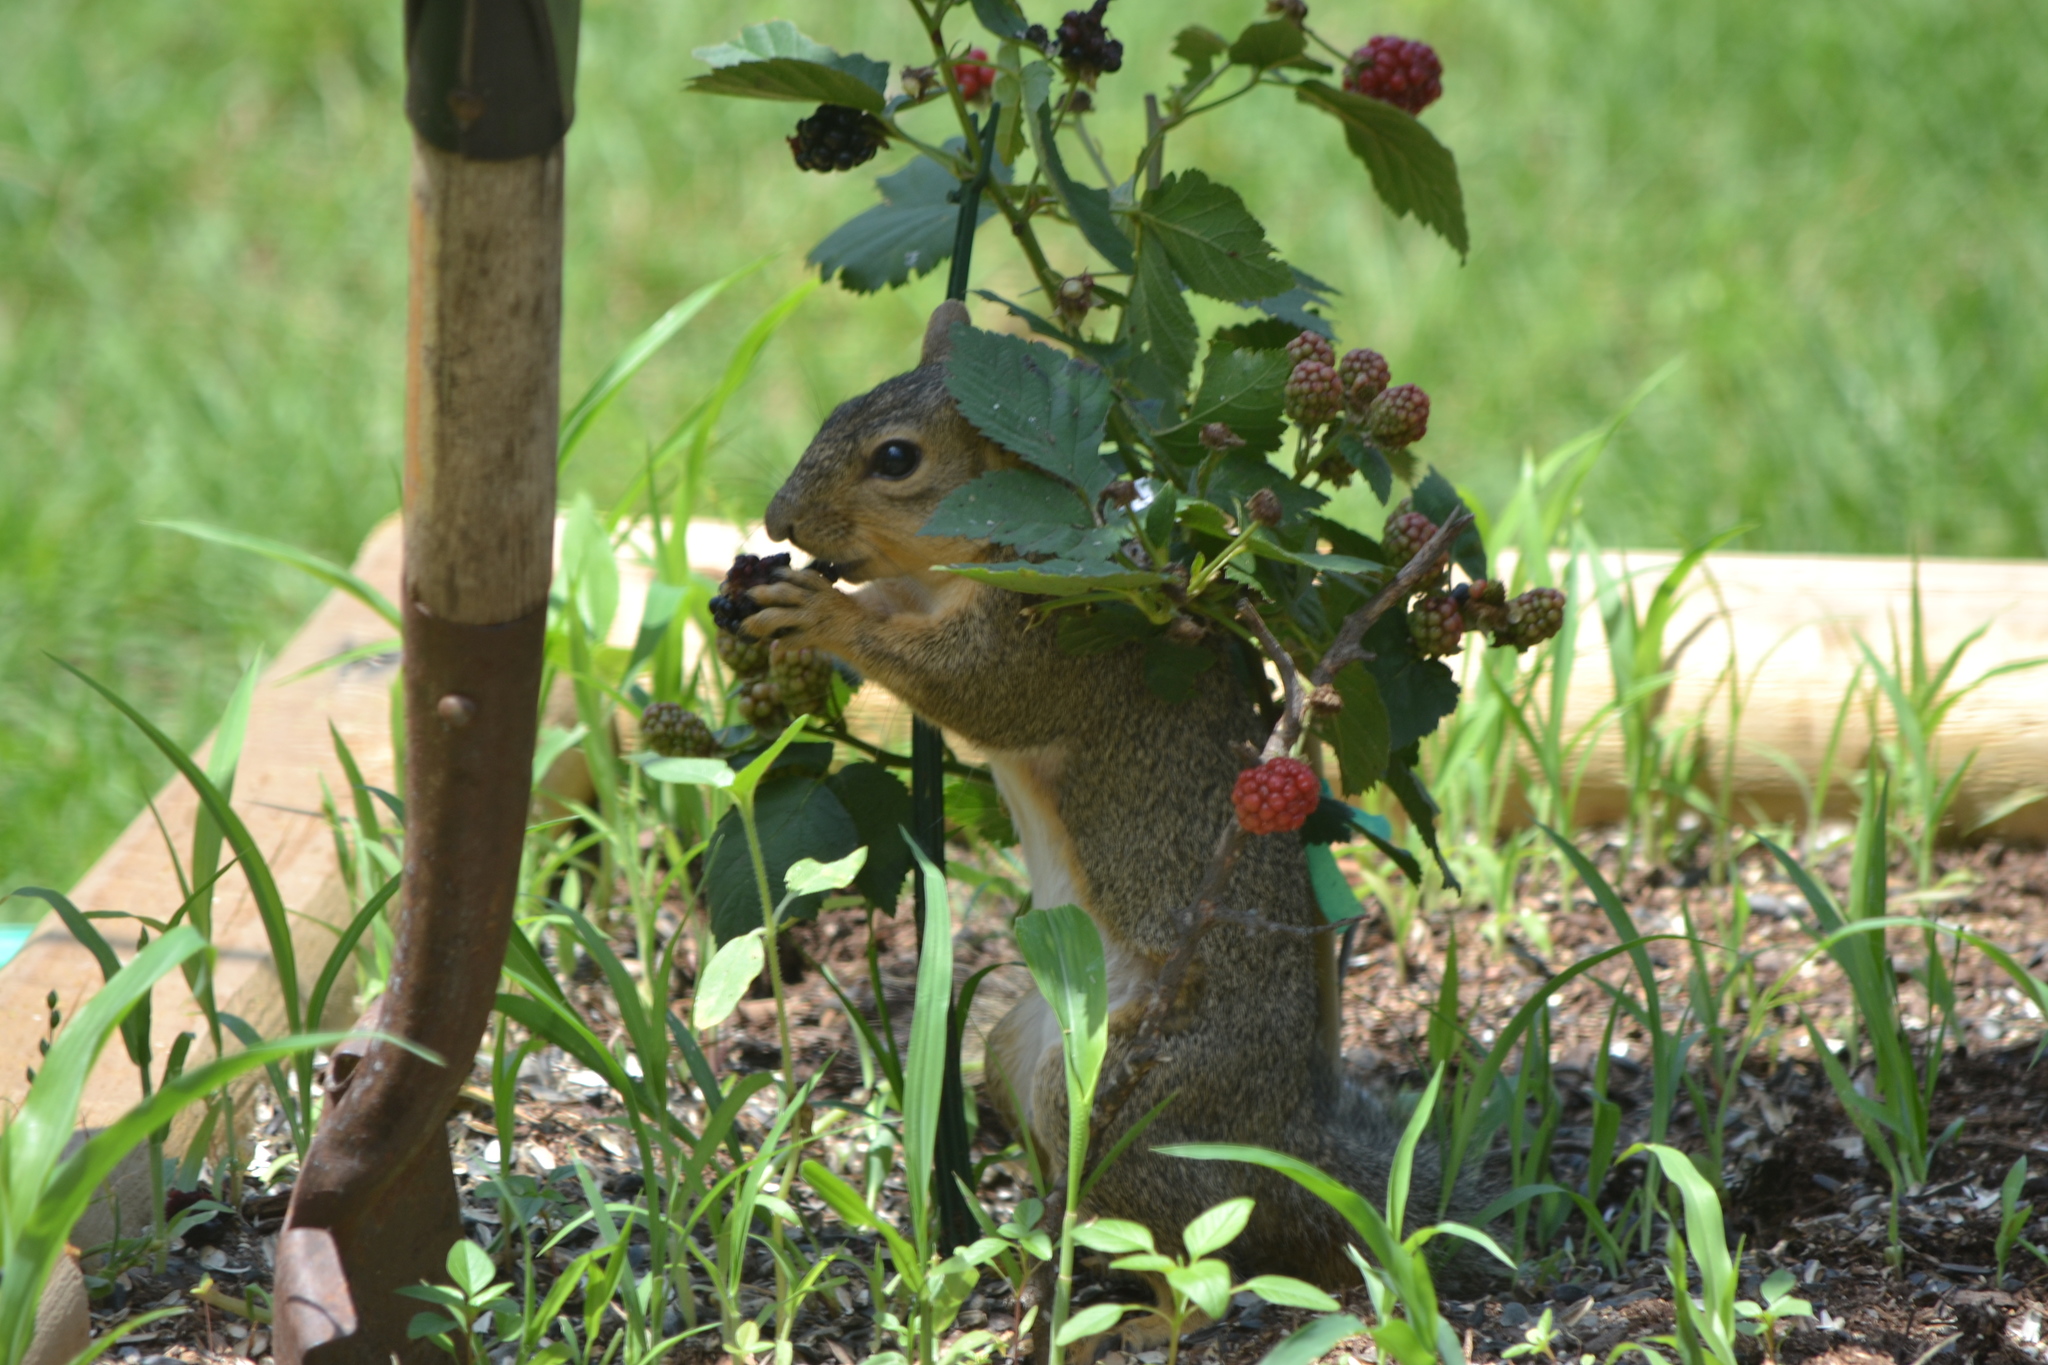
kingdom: Animalia
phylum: Chordata
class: Mammalia
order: Rodentia
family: Sciuridae
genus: Sciurus
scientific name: Sciurus niger
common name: Fox squirrel
